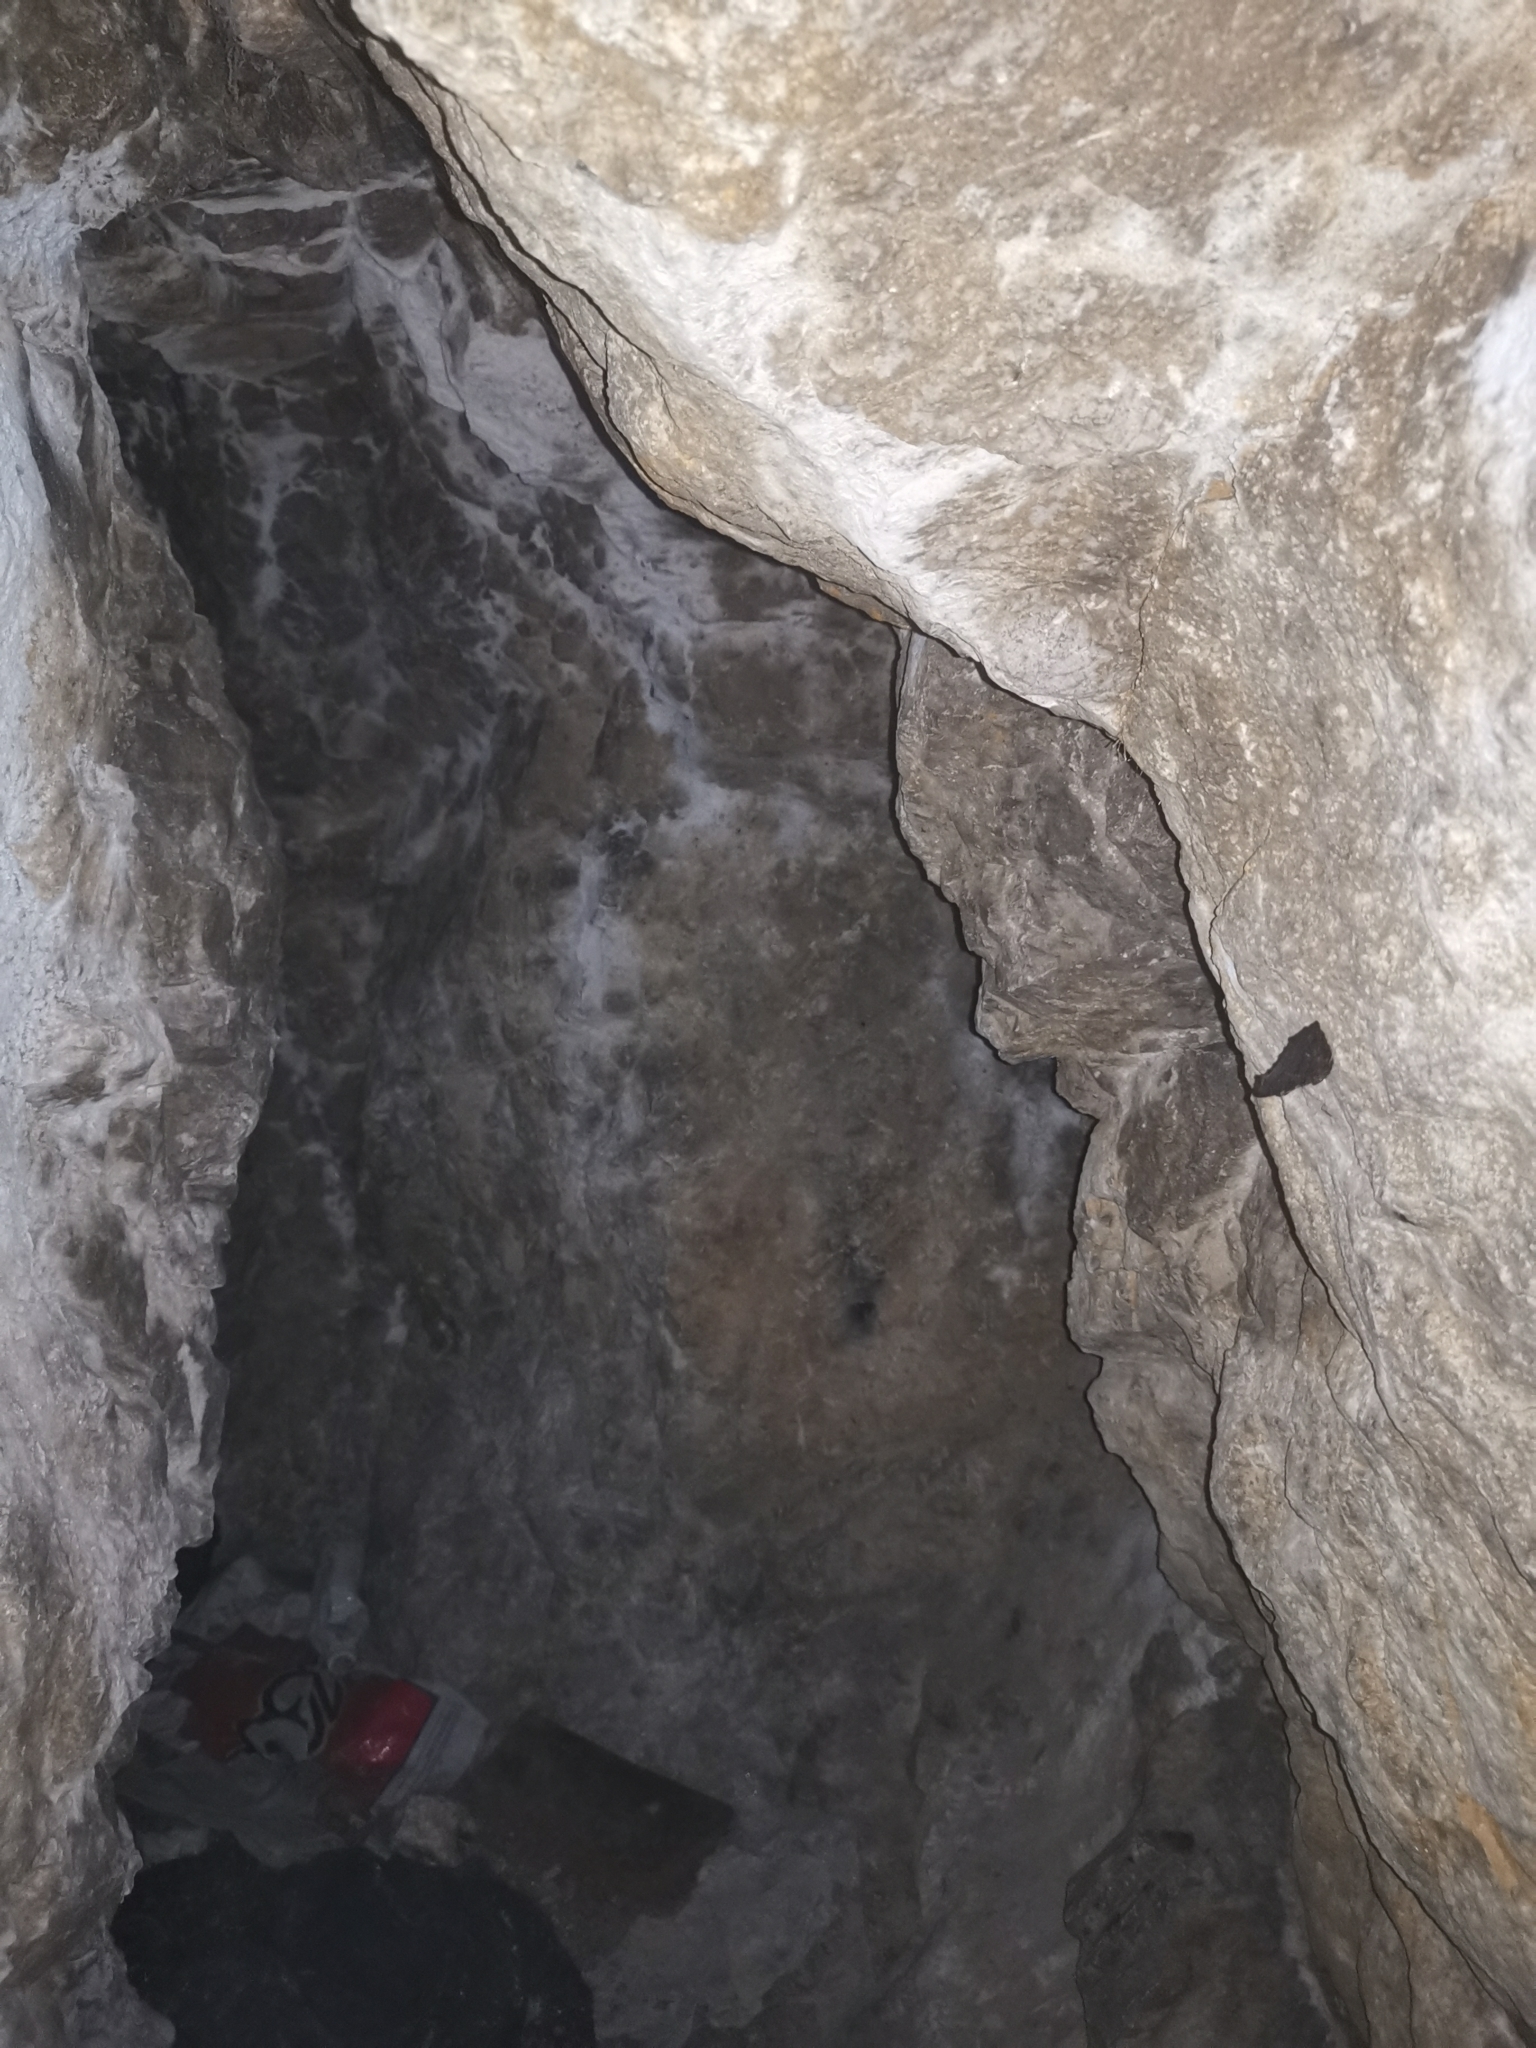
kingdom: Animalia
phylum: Arthropoda
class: Insecta
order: Lepidoptera
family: Nymphalidae
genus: Aglais
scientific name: Aglais io
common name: Peacock
